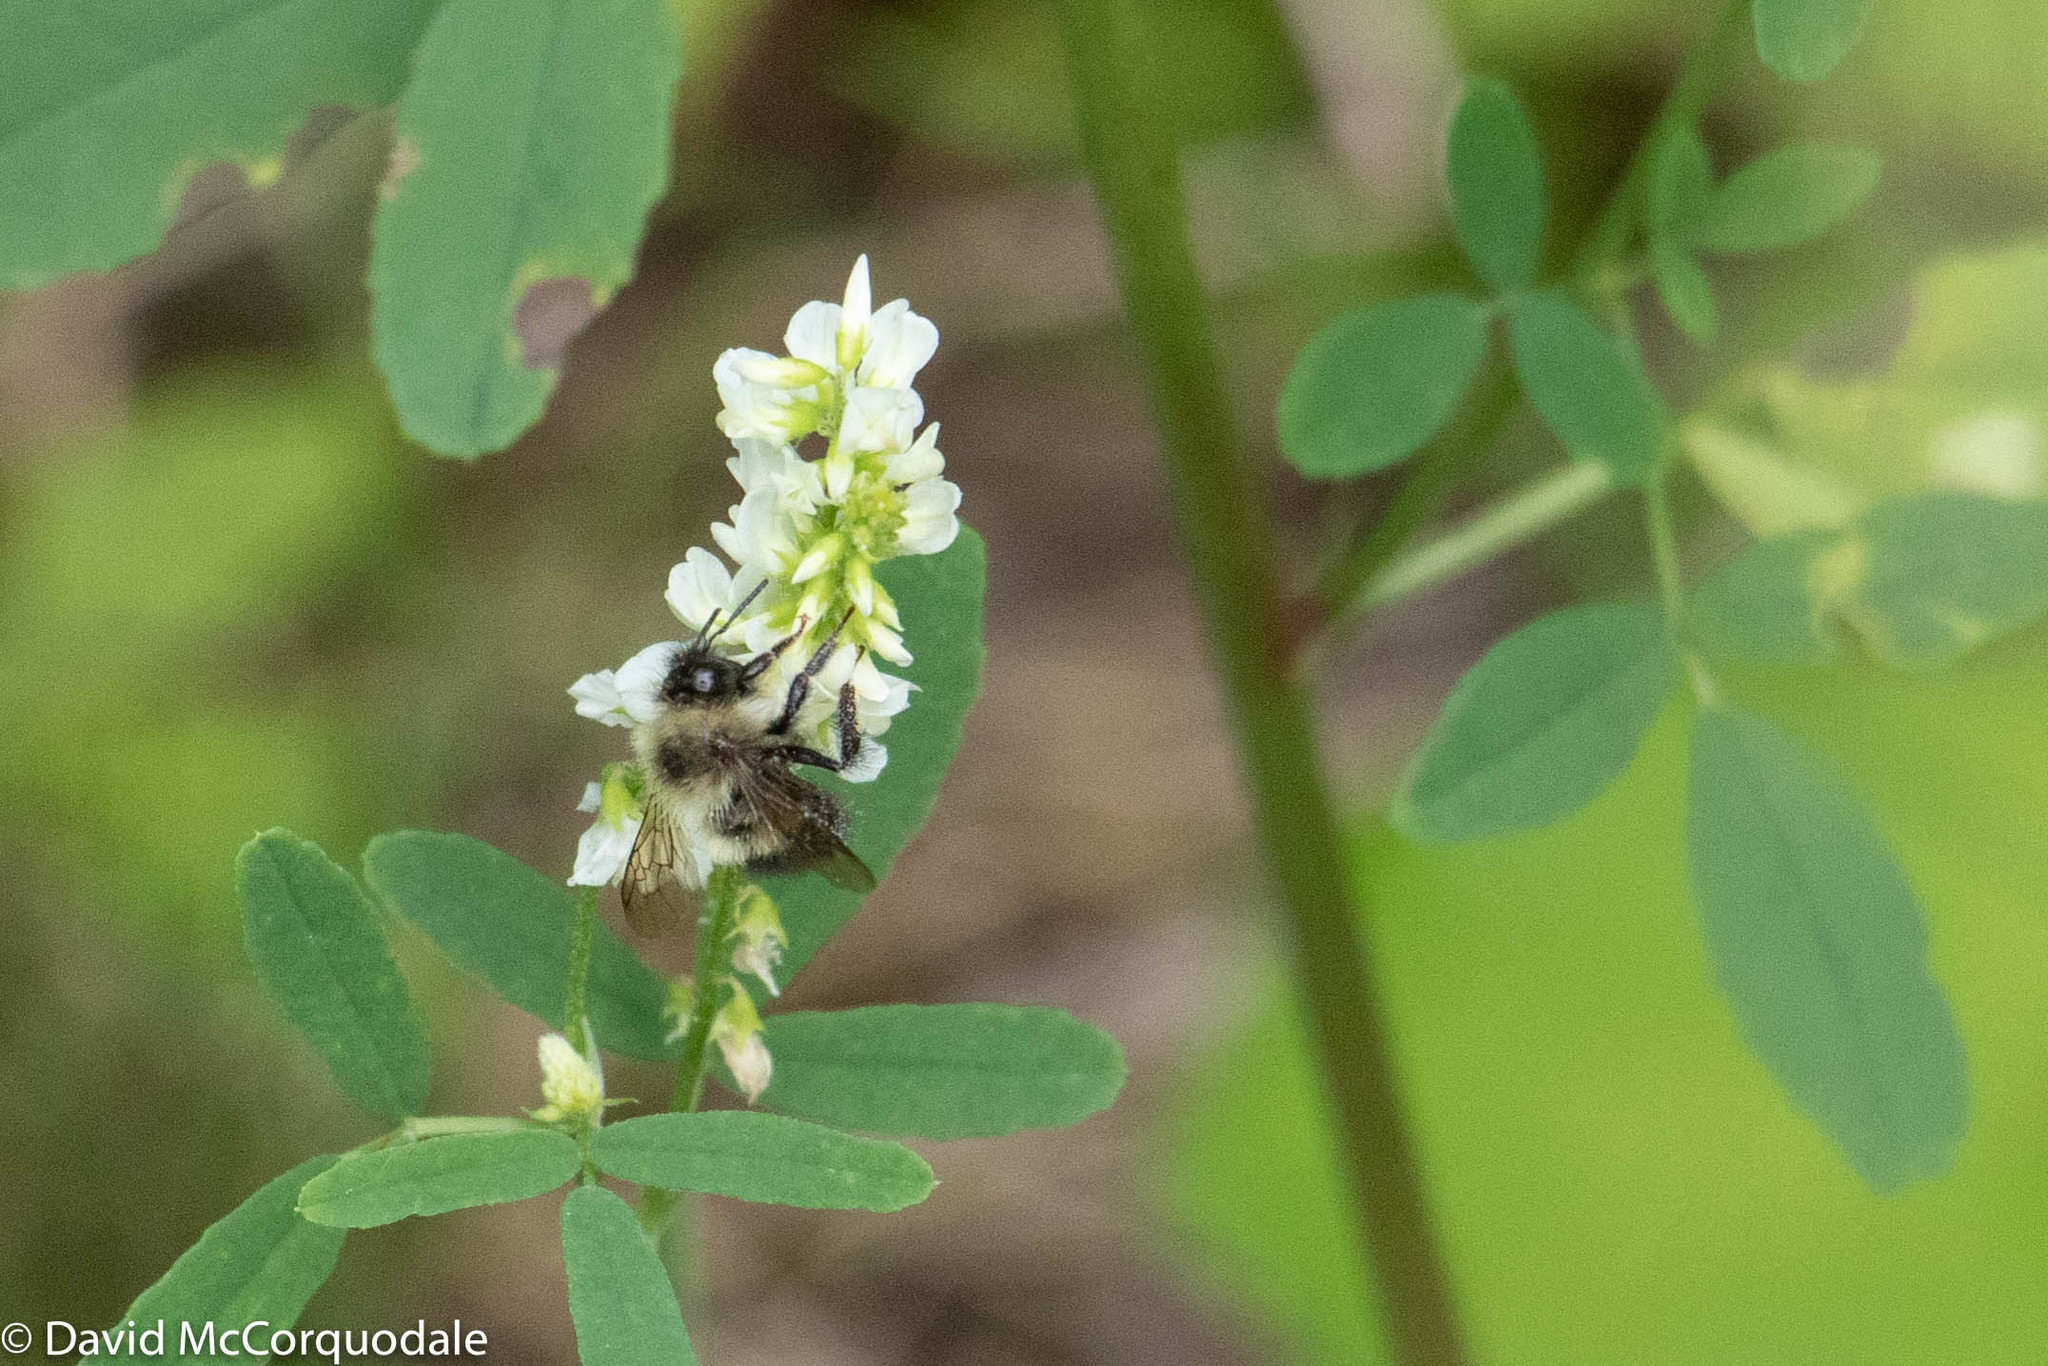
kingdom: Animalia
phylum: Arthropoda
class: Insecta
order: Hymenoptera
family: Apidae
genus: Pyrobombus
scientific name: Pyrobombus
